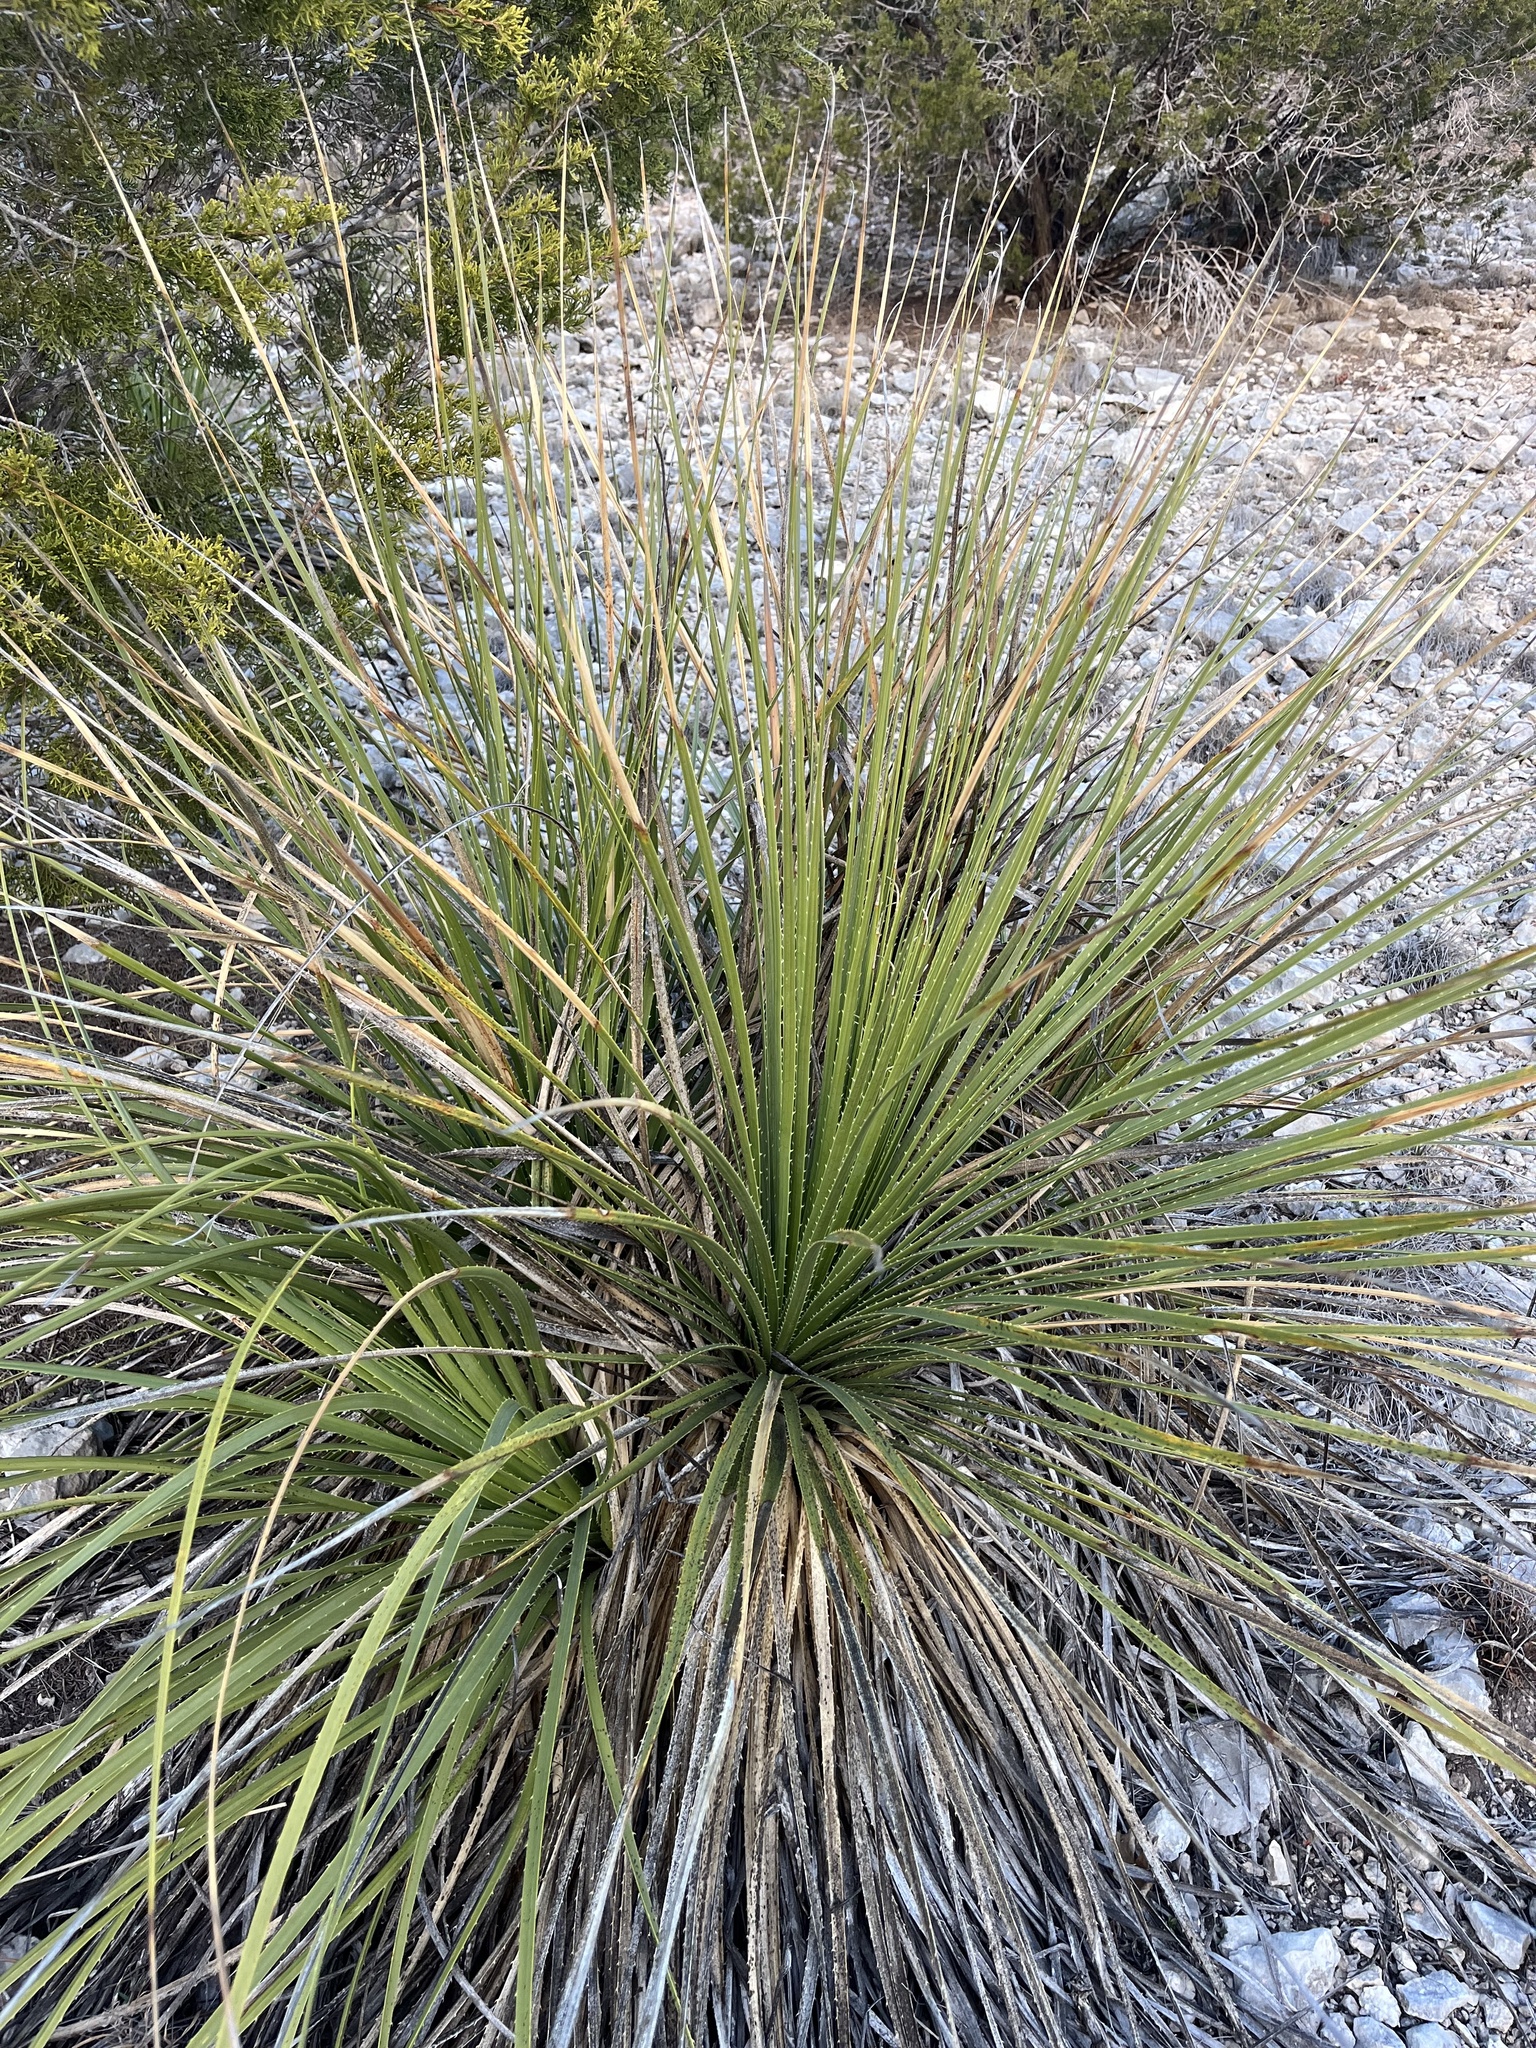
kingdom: Plantae
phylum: Tracheophyta
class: Liliopsida
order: Asparagales
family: Asparagaceae
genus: Dasylirion
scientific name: Dasylirion texanum
